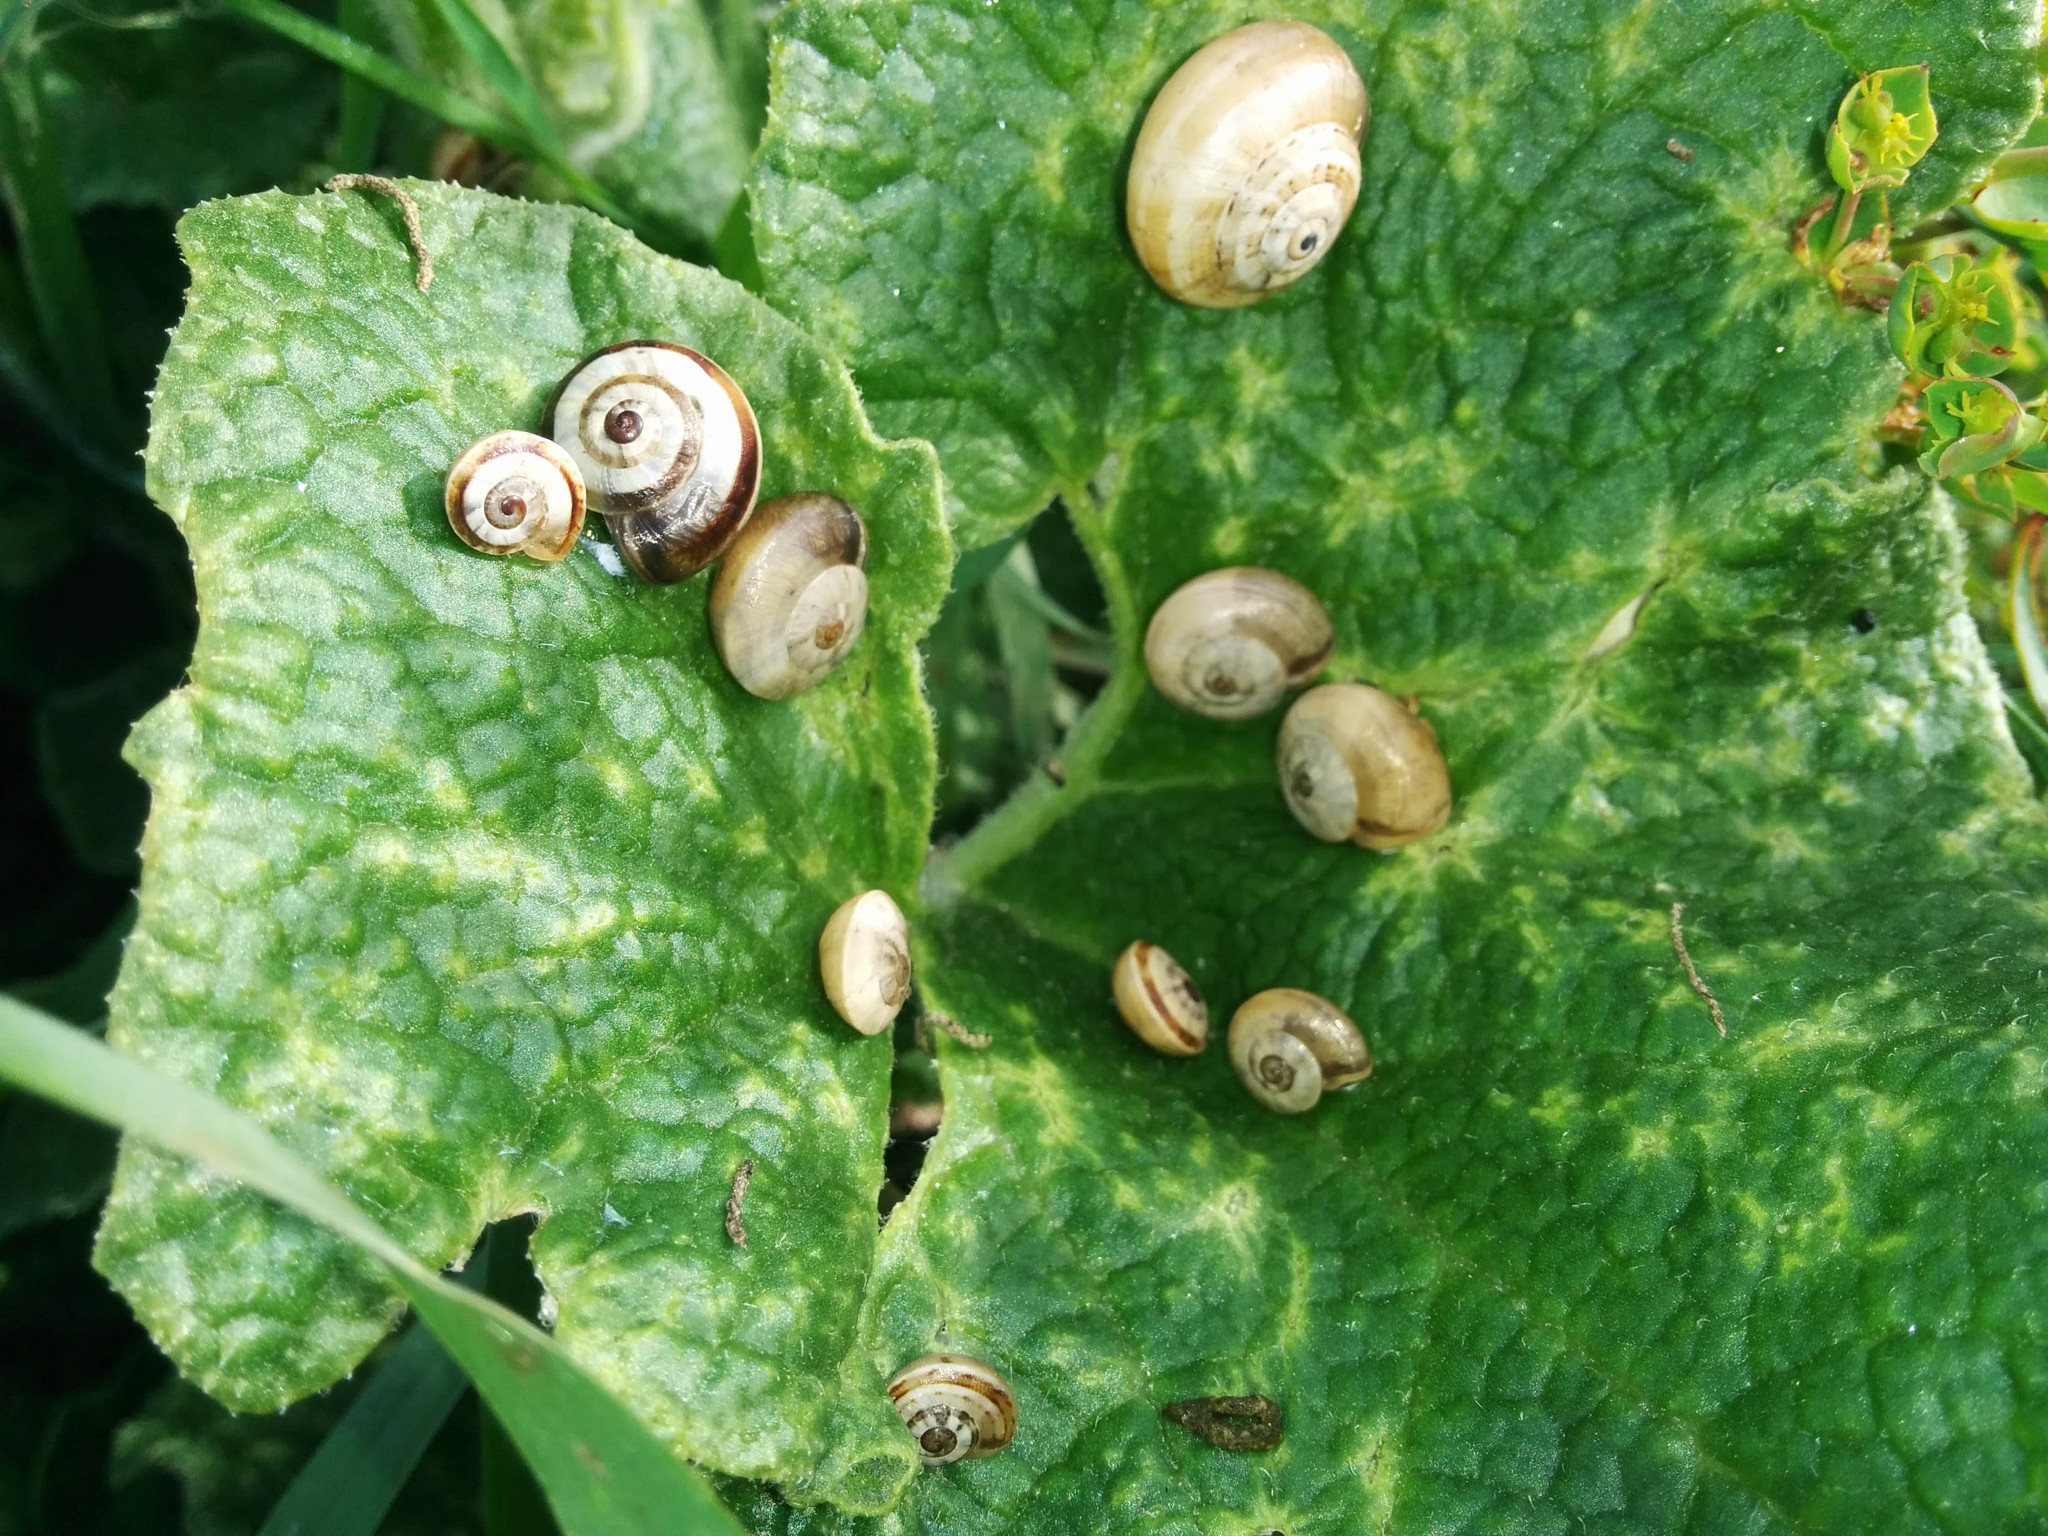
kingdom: Animalia
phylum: Mollusca
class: Gastropoda
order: Stylommatophora
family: Helicidae
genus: Theba
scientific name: Theba pisana
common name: White snail
